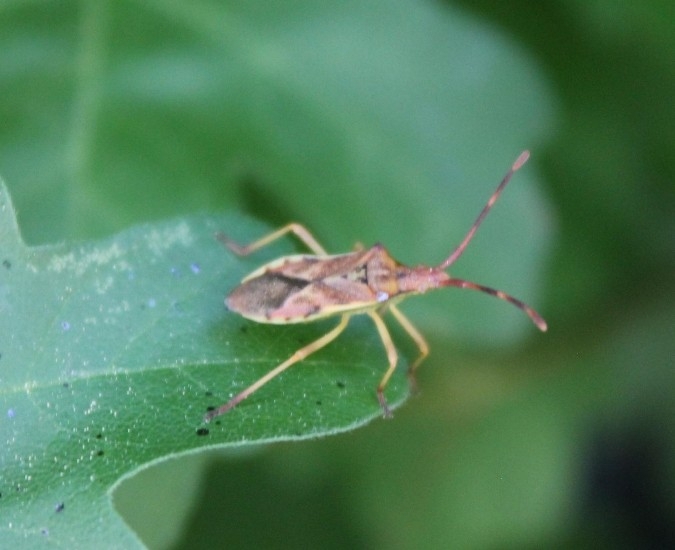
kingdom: Animalia
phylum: Arthropoda
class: Insecta
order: Hemiptera
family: Coreidae
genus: Gonocerus
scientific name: Gonocerus juniperi
